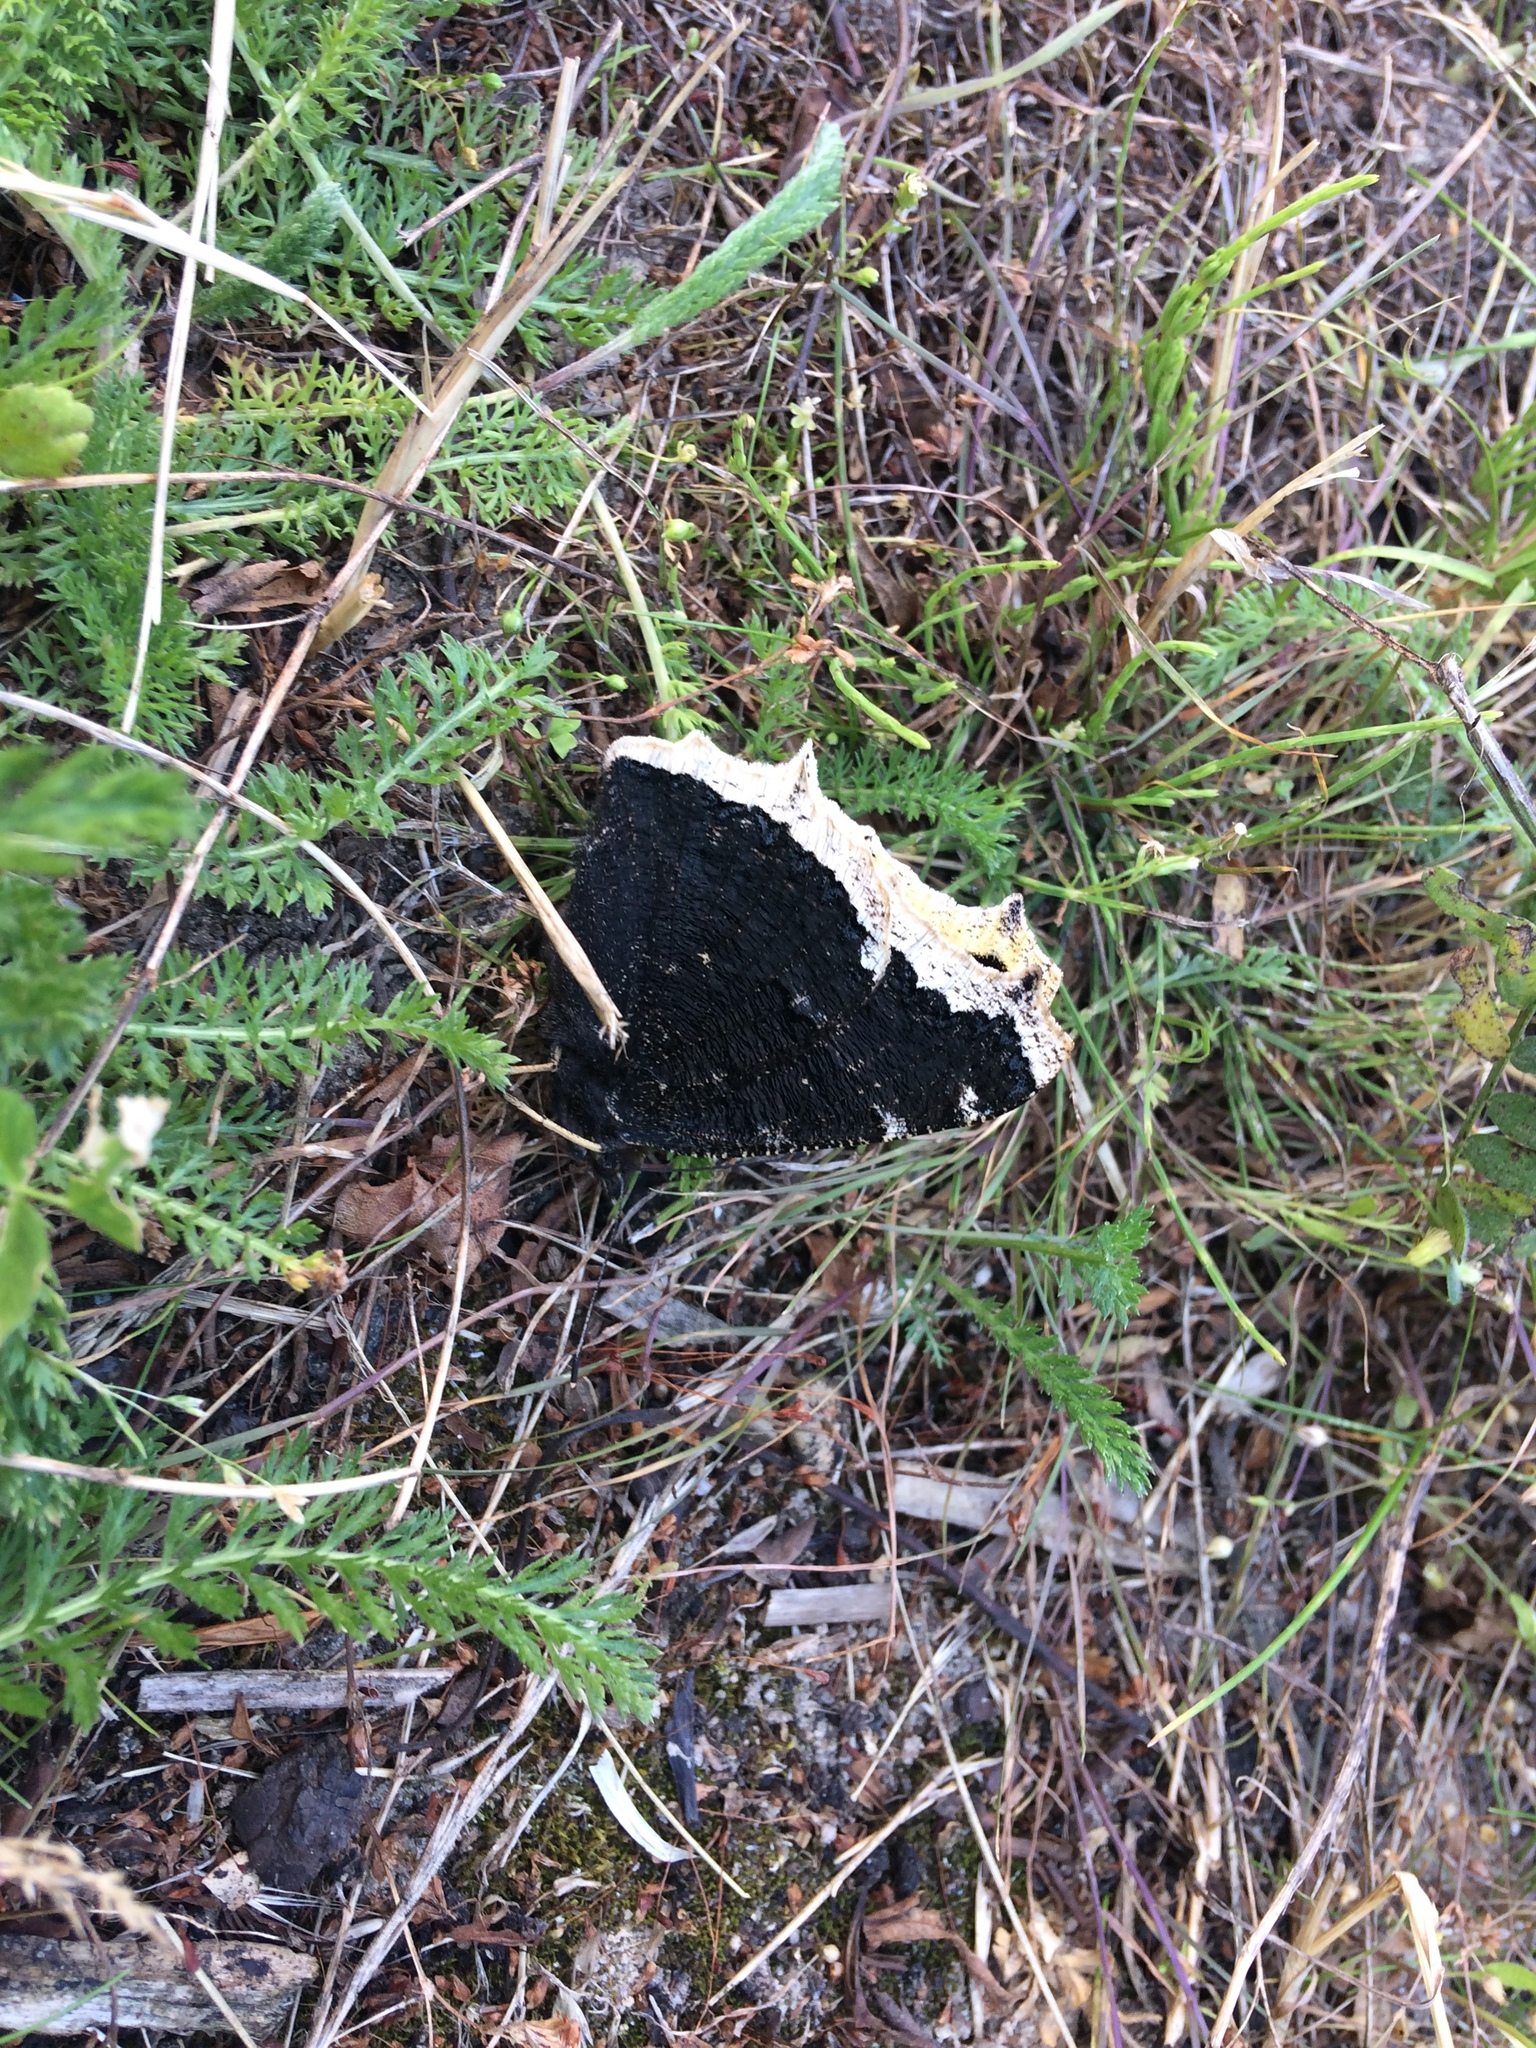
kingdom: Animalia
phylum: Arthropoda
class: Insecta
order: Lepidoptera
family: Nymphalidae
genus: Nymphalis
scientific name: Nymphalis antiopa
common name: Camberwell beauty
